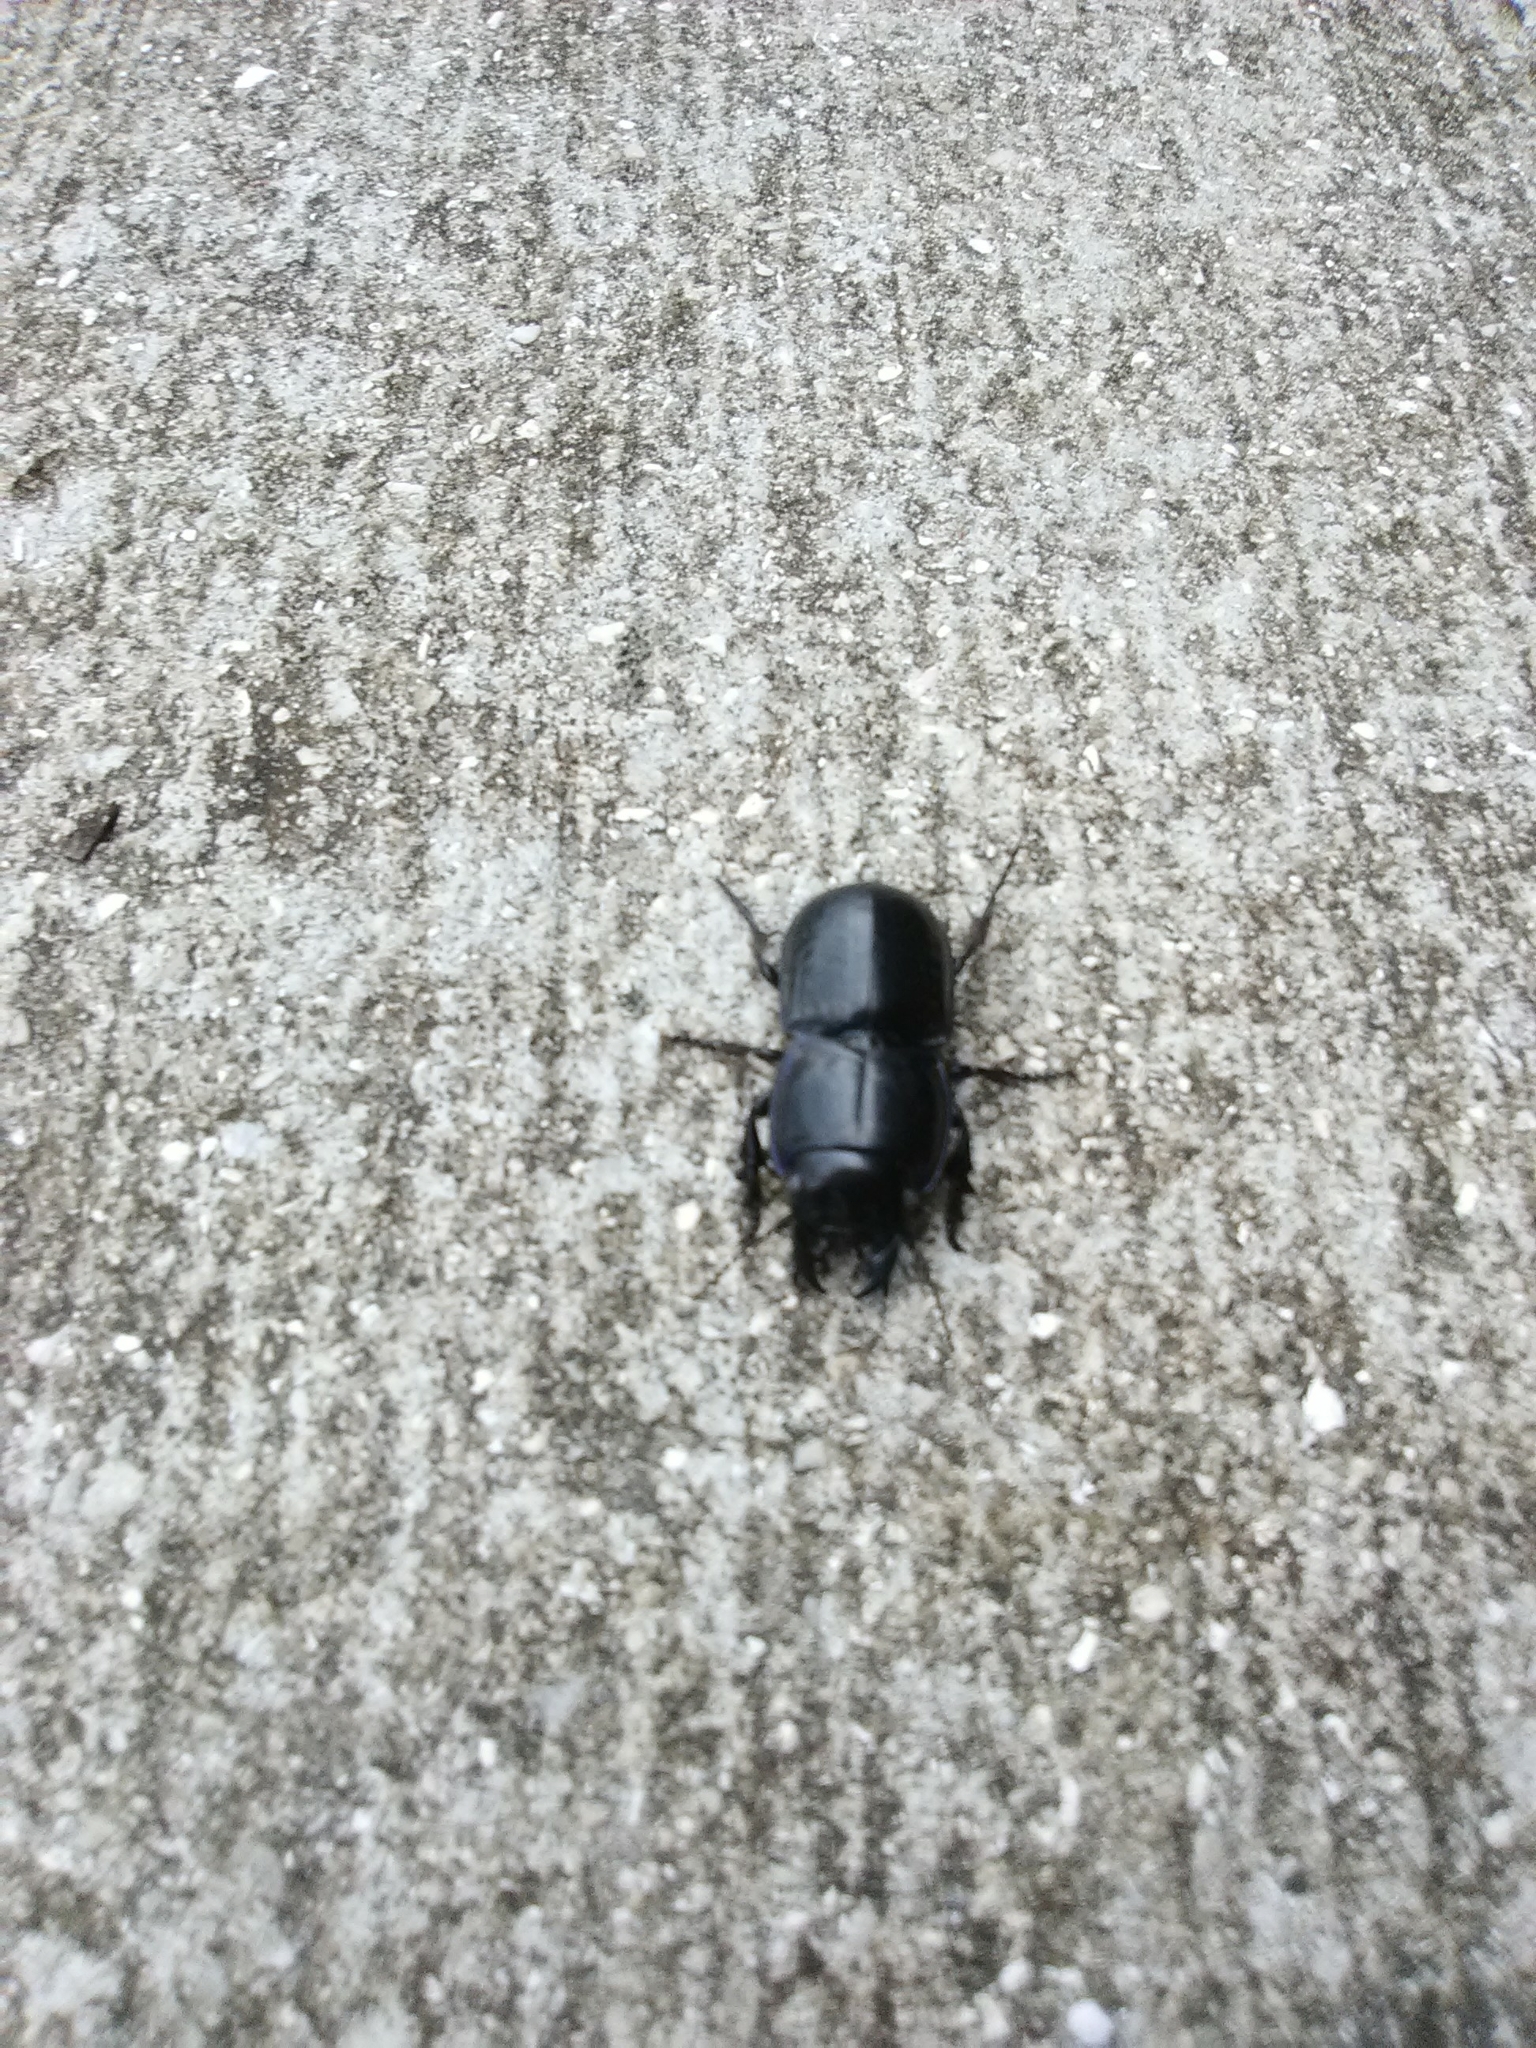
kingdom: Animalia
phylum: Arthropoda
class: Insecta
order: Coleoptera
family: Carabidae
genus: Pasimachus
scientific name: Pasimachus sublaevis
